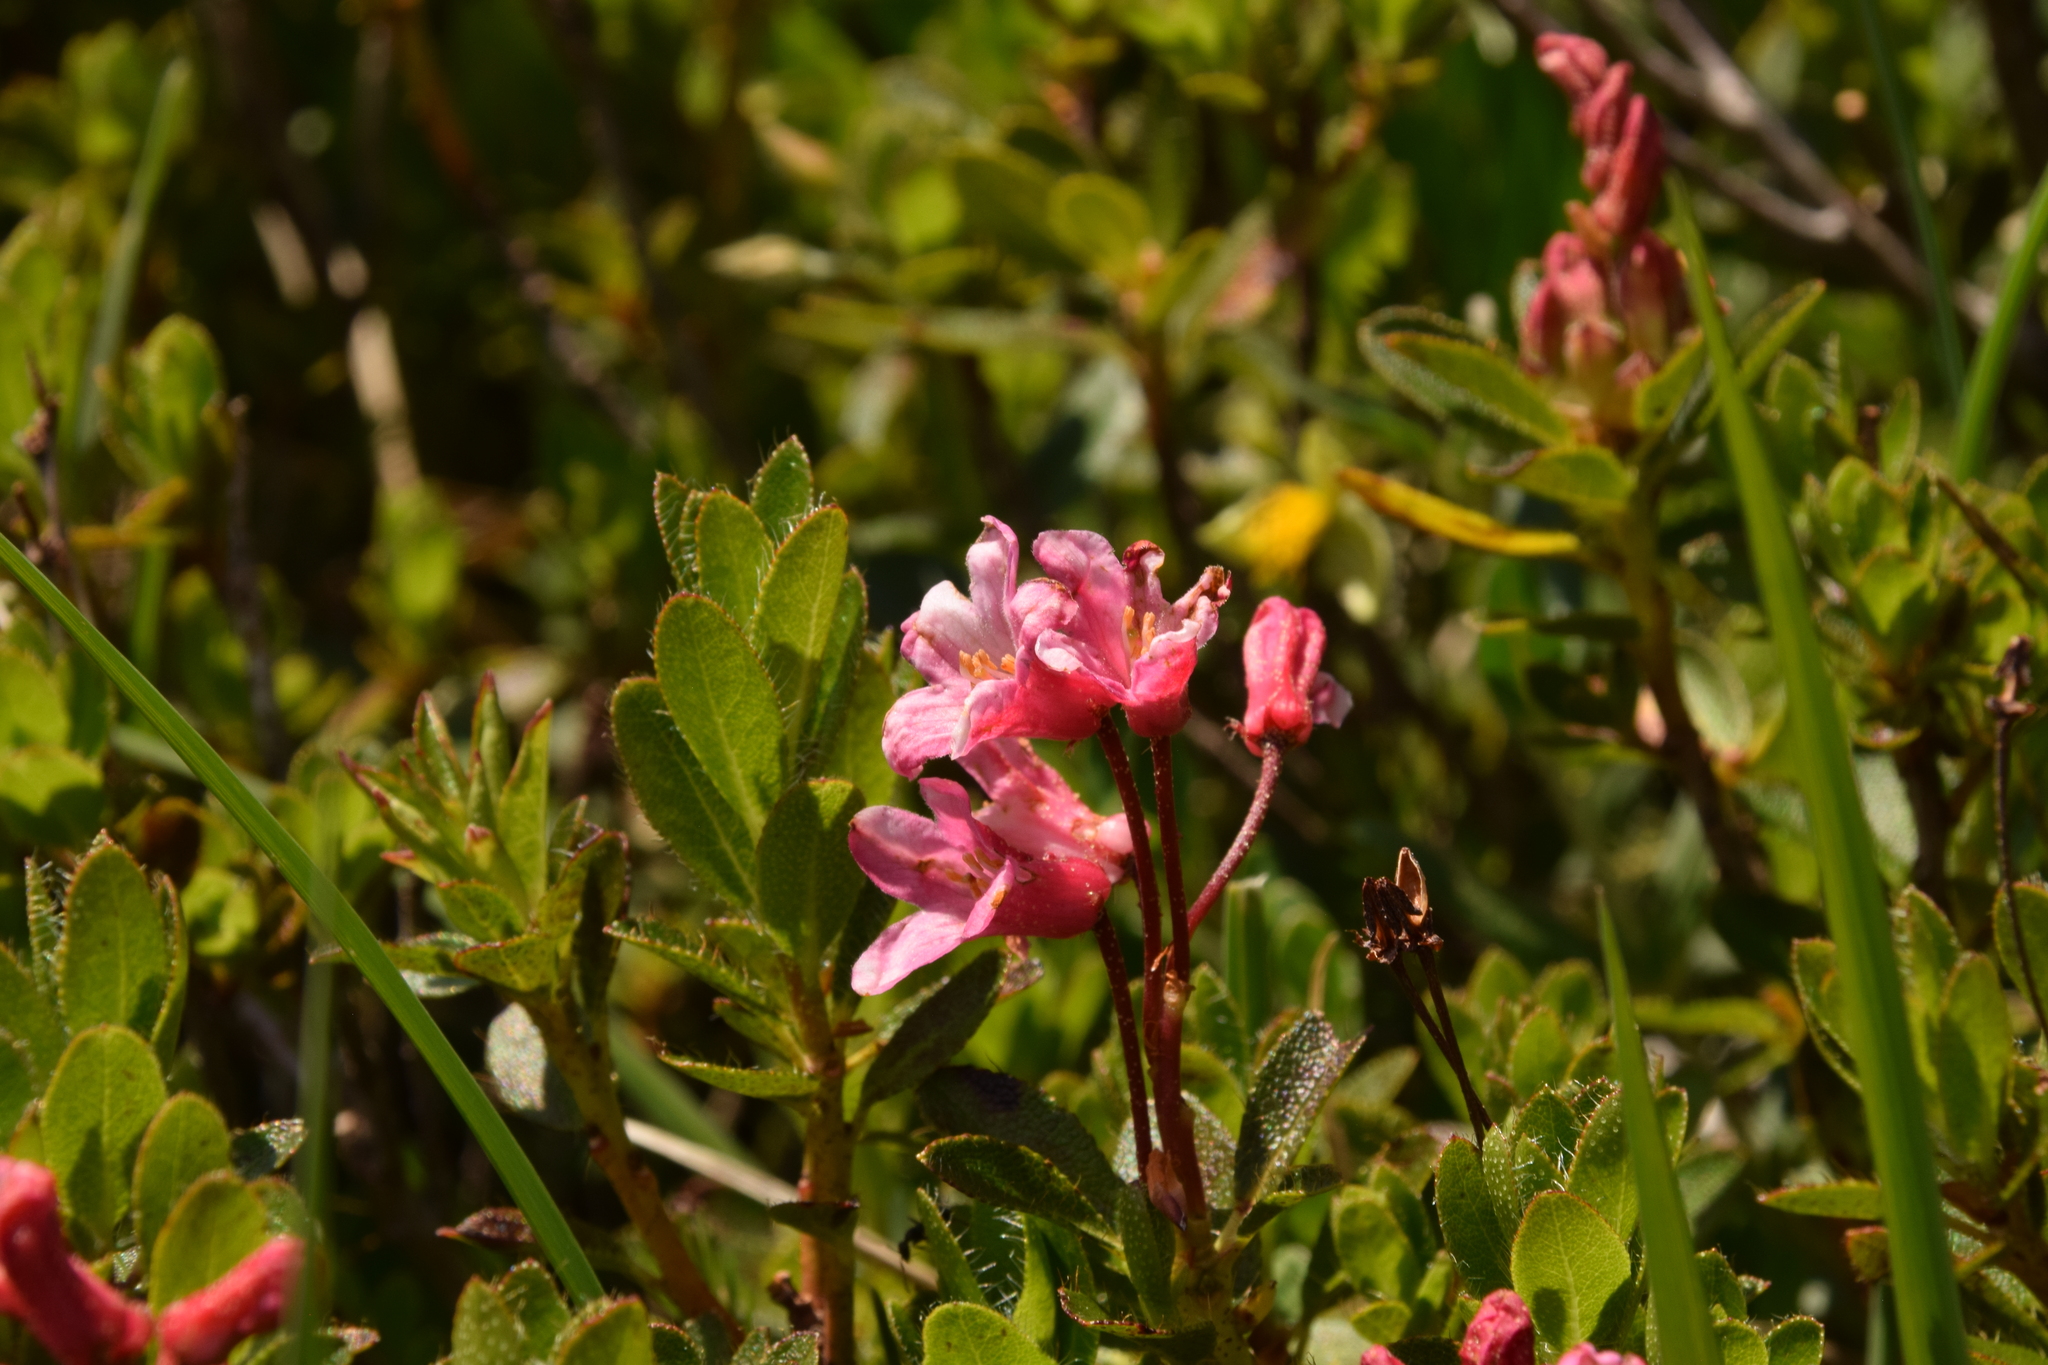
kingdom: Plantae
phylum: Tracheophyta
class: Magnoliopsida
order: Ericales
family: Ericaceae
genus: Rhododendron
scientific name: Rhododendron hirsutum
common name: Hairy alpenrose
